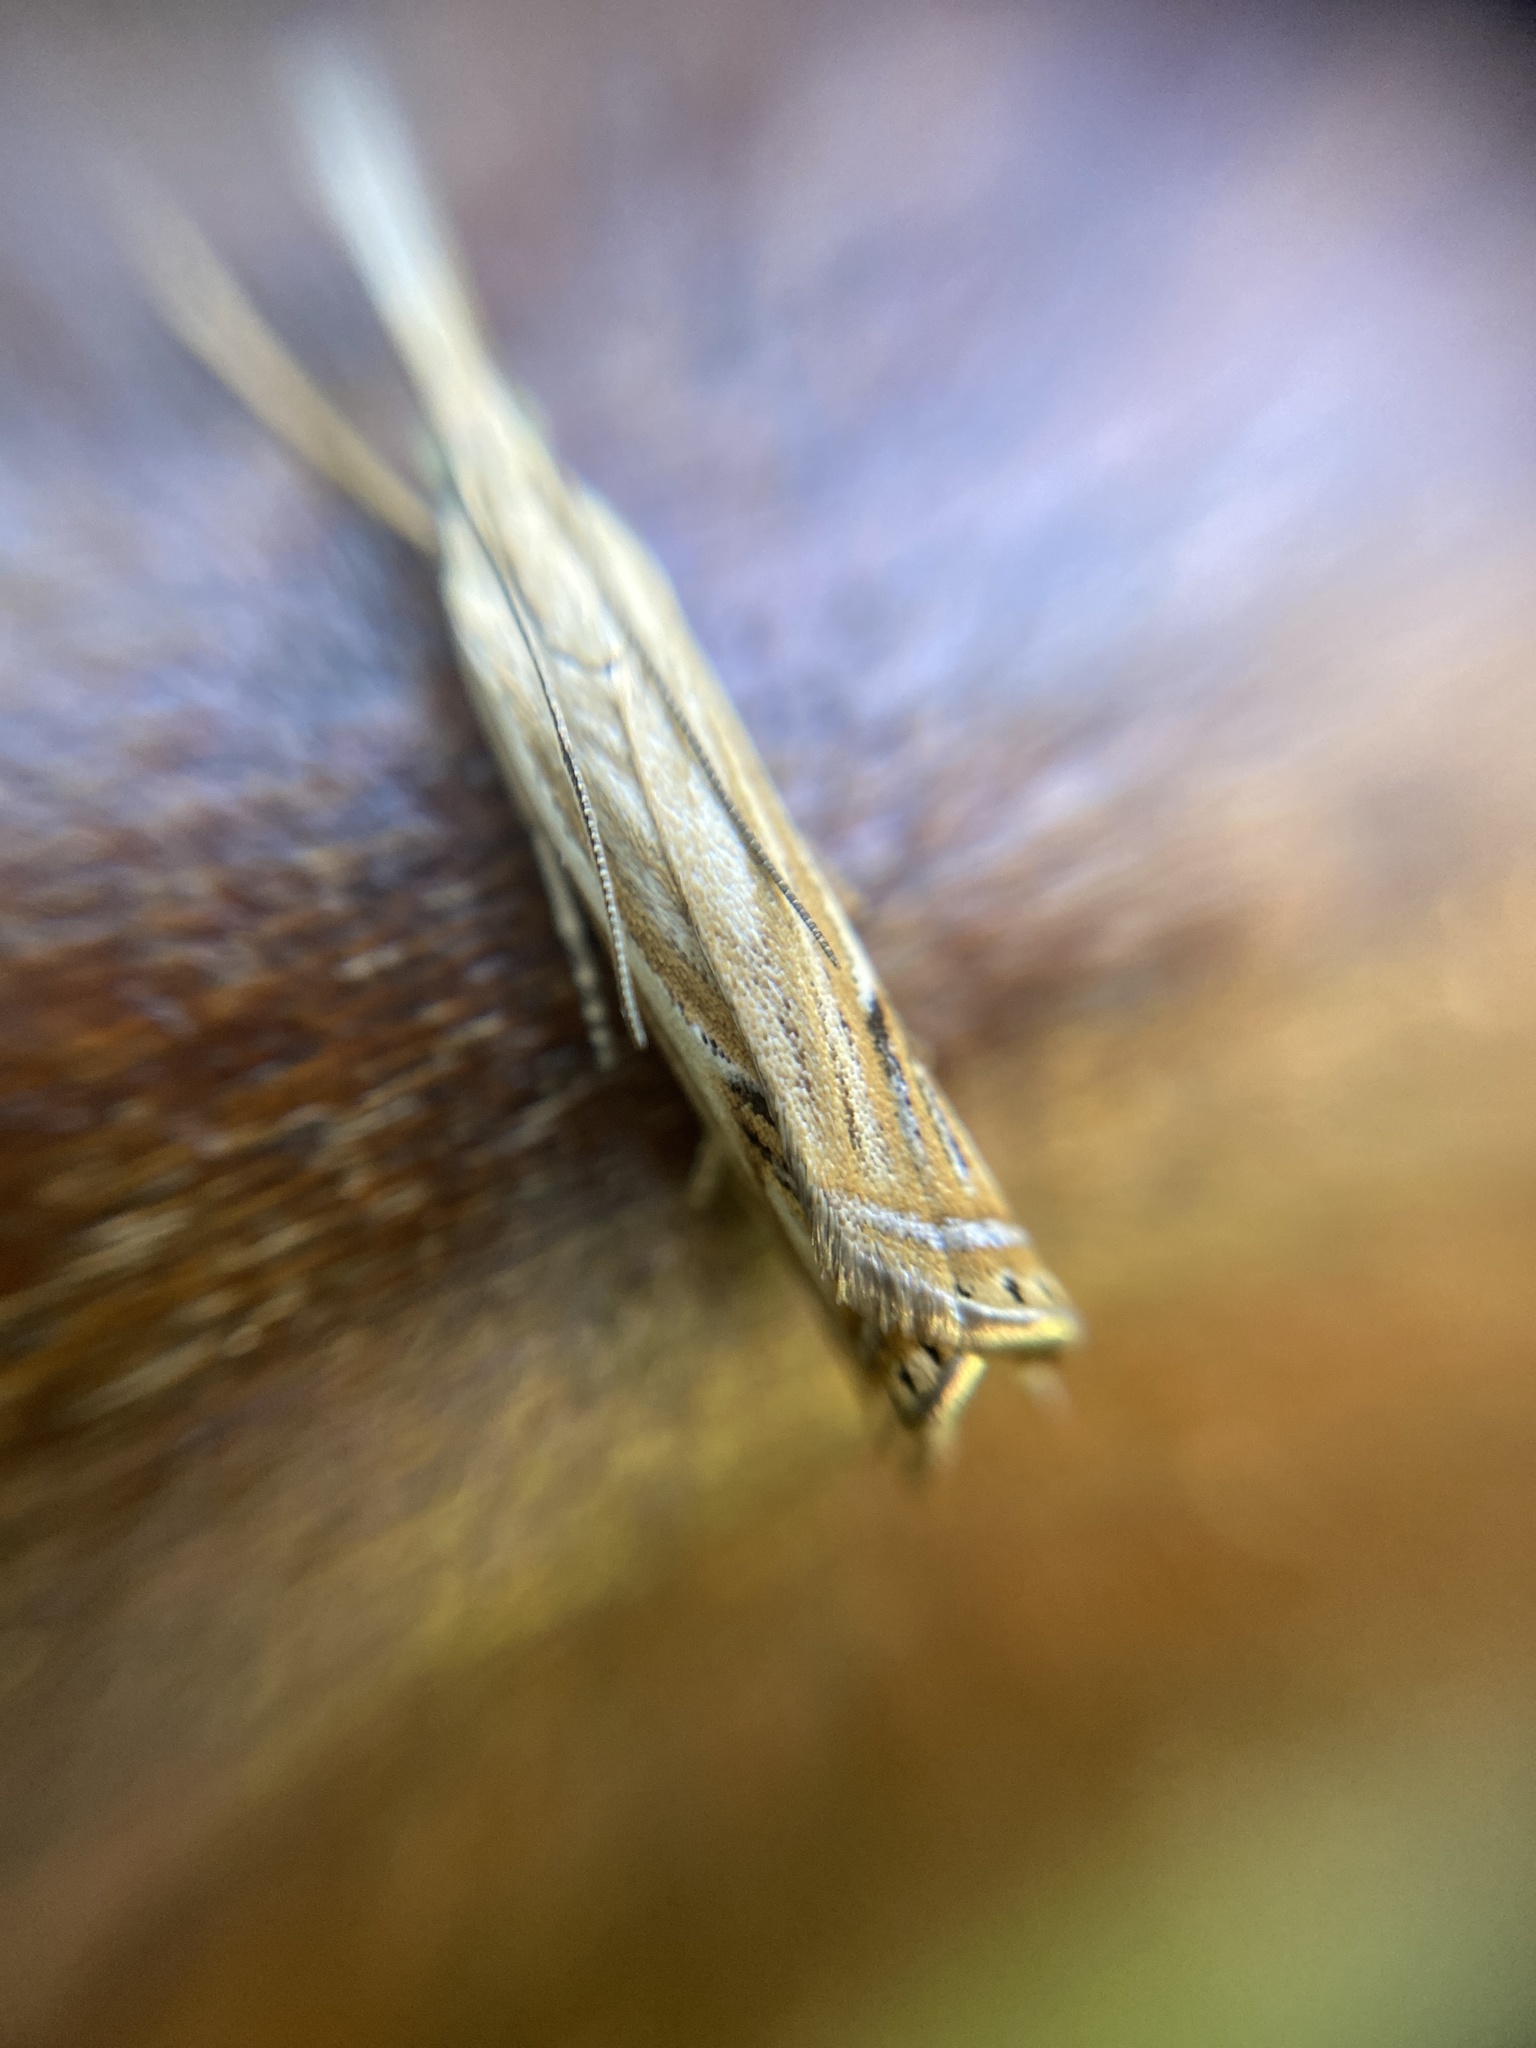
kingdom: Animalia
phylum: Arthropoda
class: Insecta
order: Lepidoptera
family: Crambidae
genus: Crambus
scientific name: Crambus nemorella
